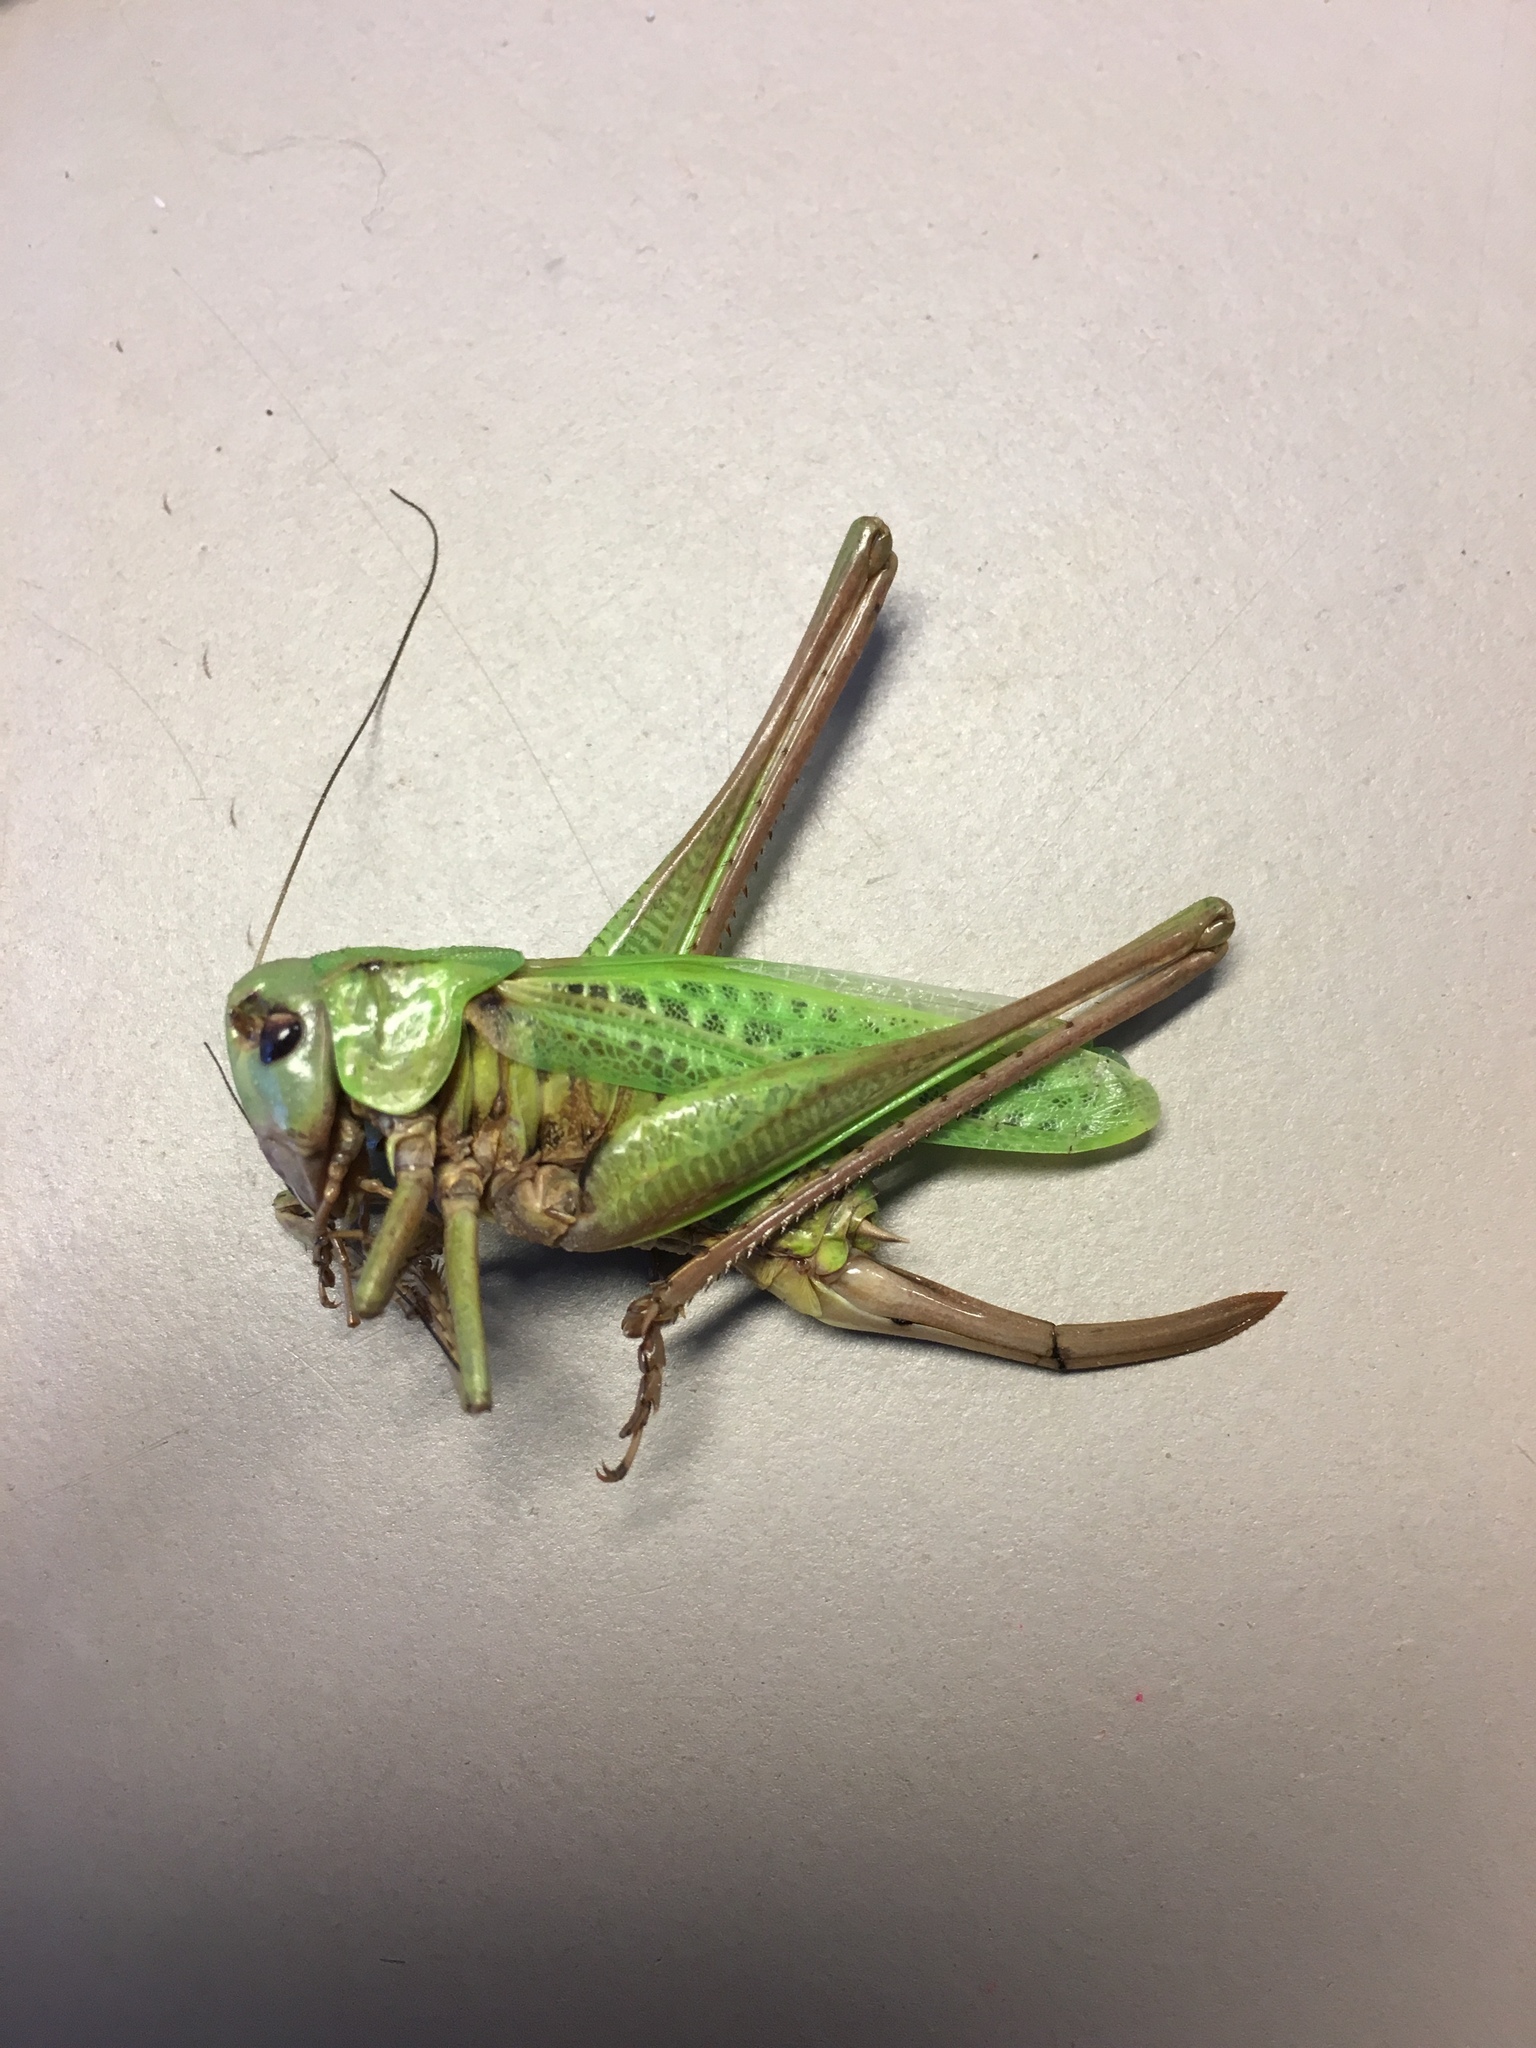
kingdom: Animalia
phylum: Arthropoda
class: Insecta
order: Orthoptera
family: Tettigoniidae
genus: Decticus
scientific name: Decticus verrucivorus
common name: Wart-biter
